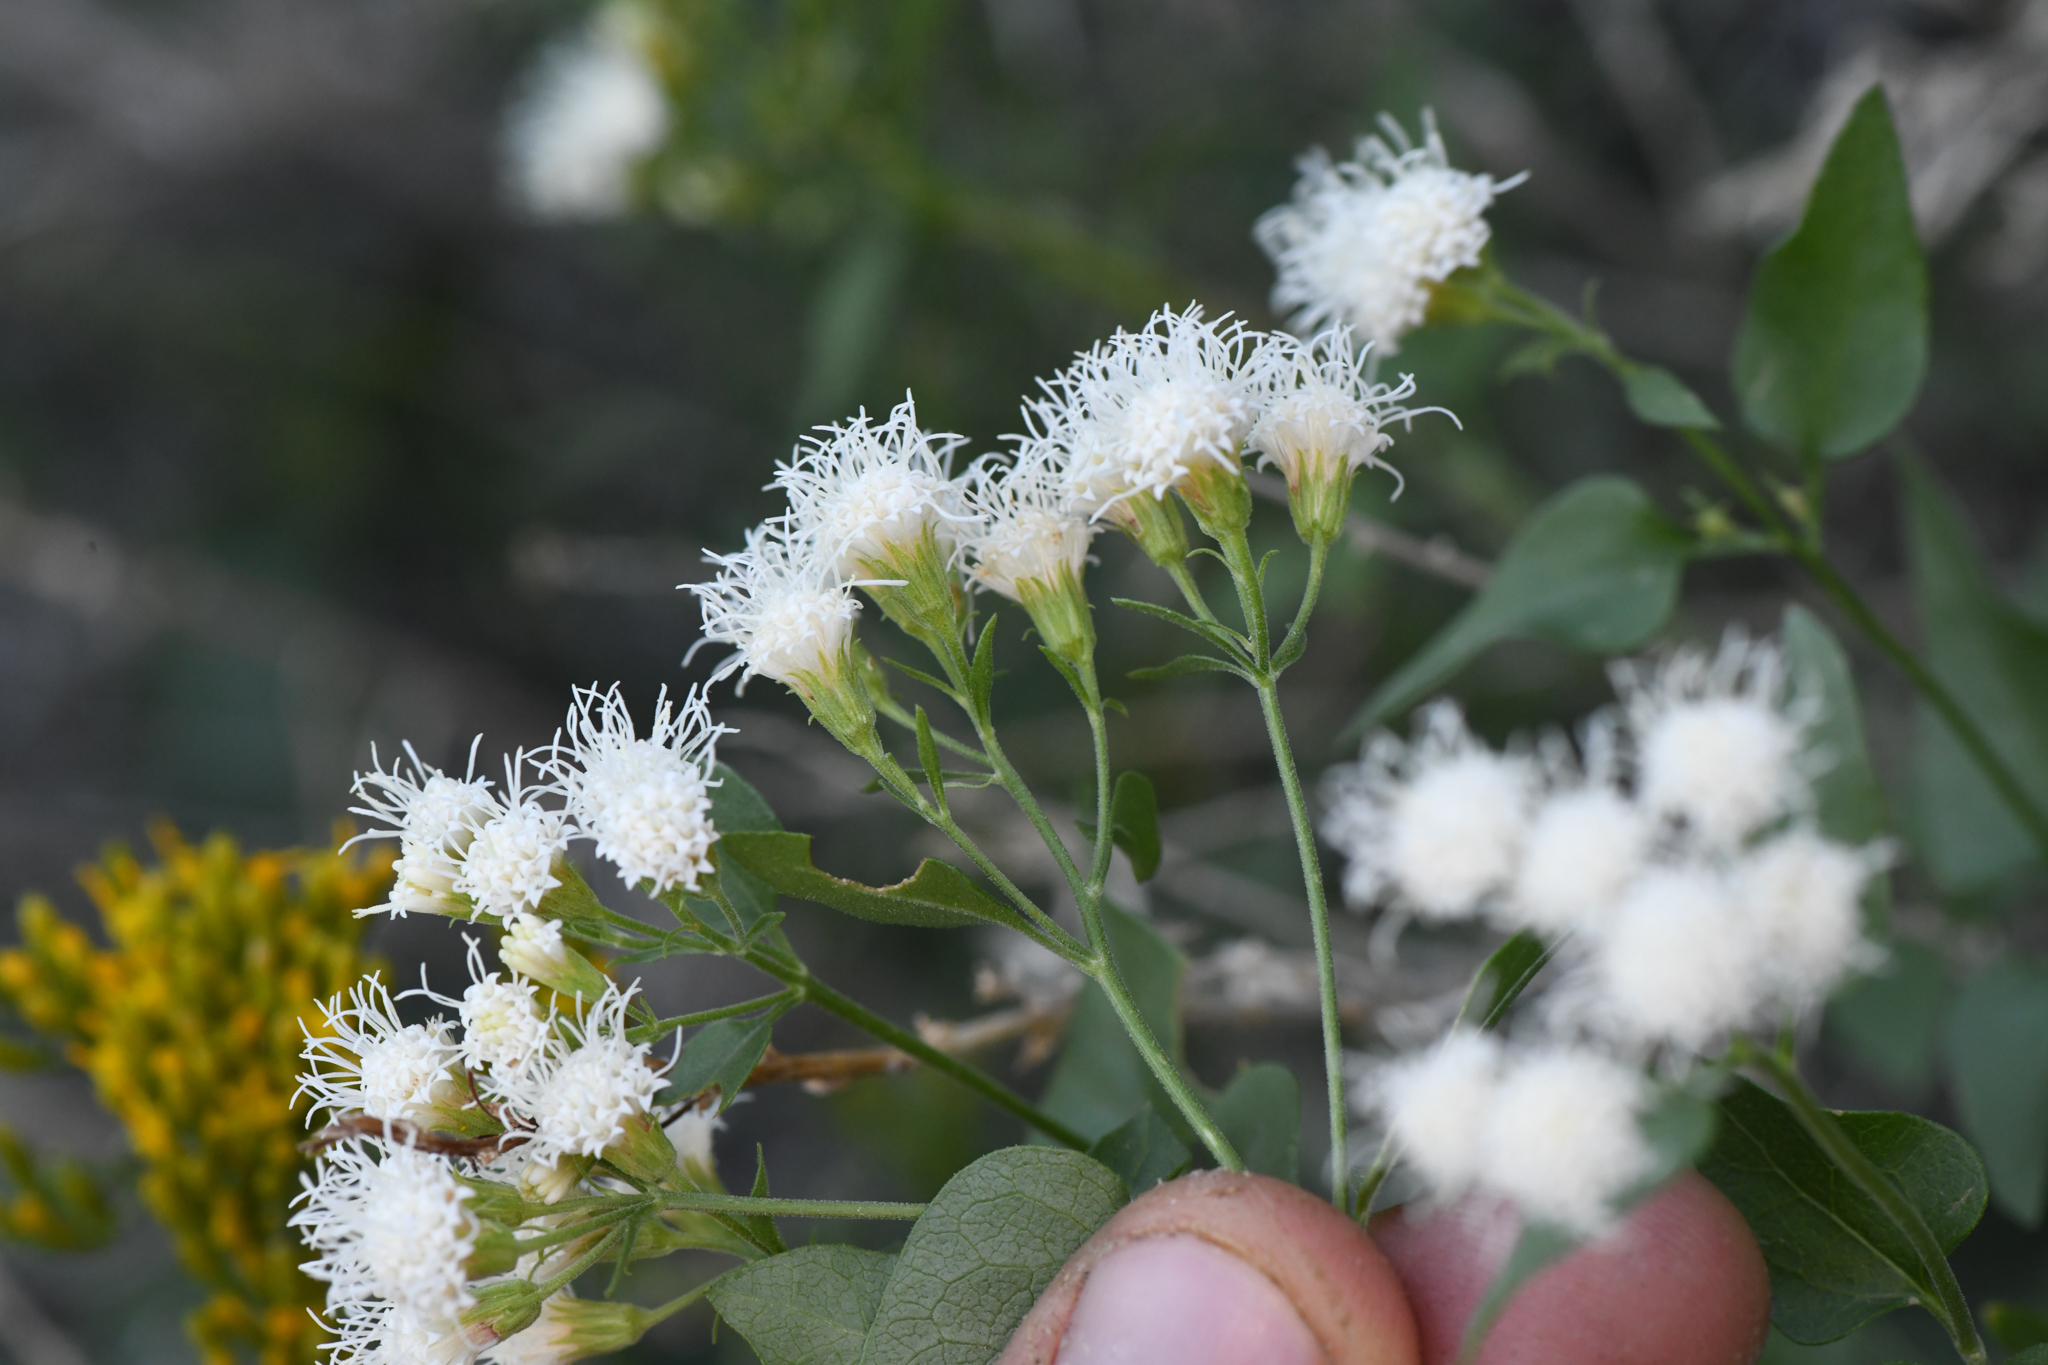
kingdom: Plantae
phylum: Tracheophyta
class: Magnoliopsida
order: Asterales
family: Asteraceae
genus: Ageratina
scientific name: Ageratina herbacea
